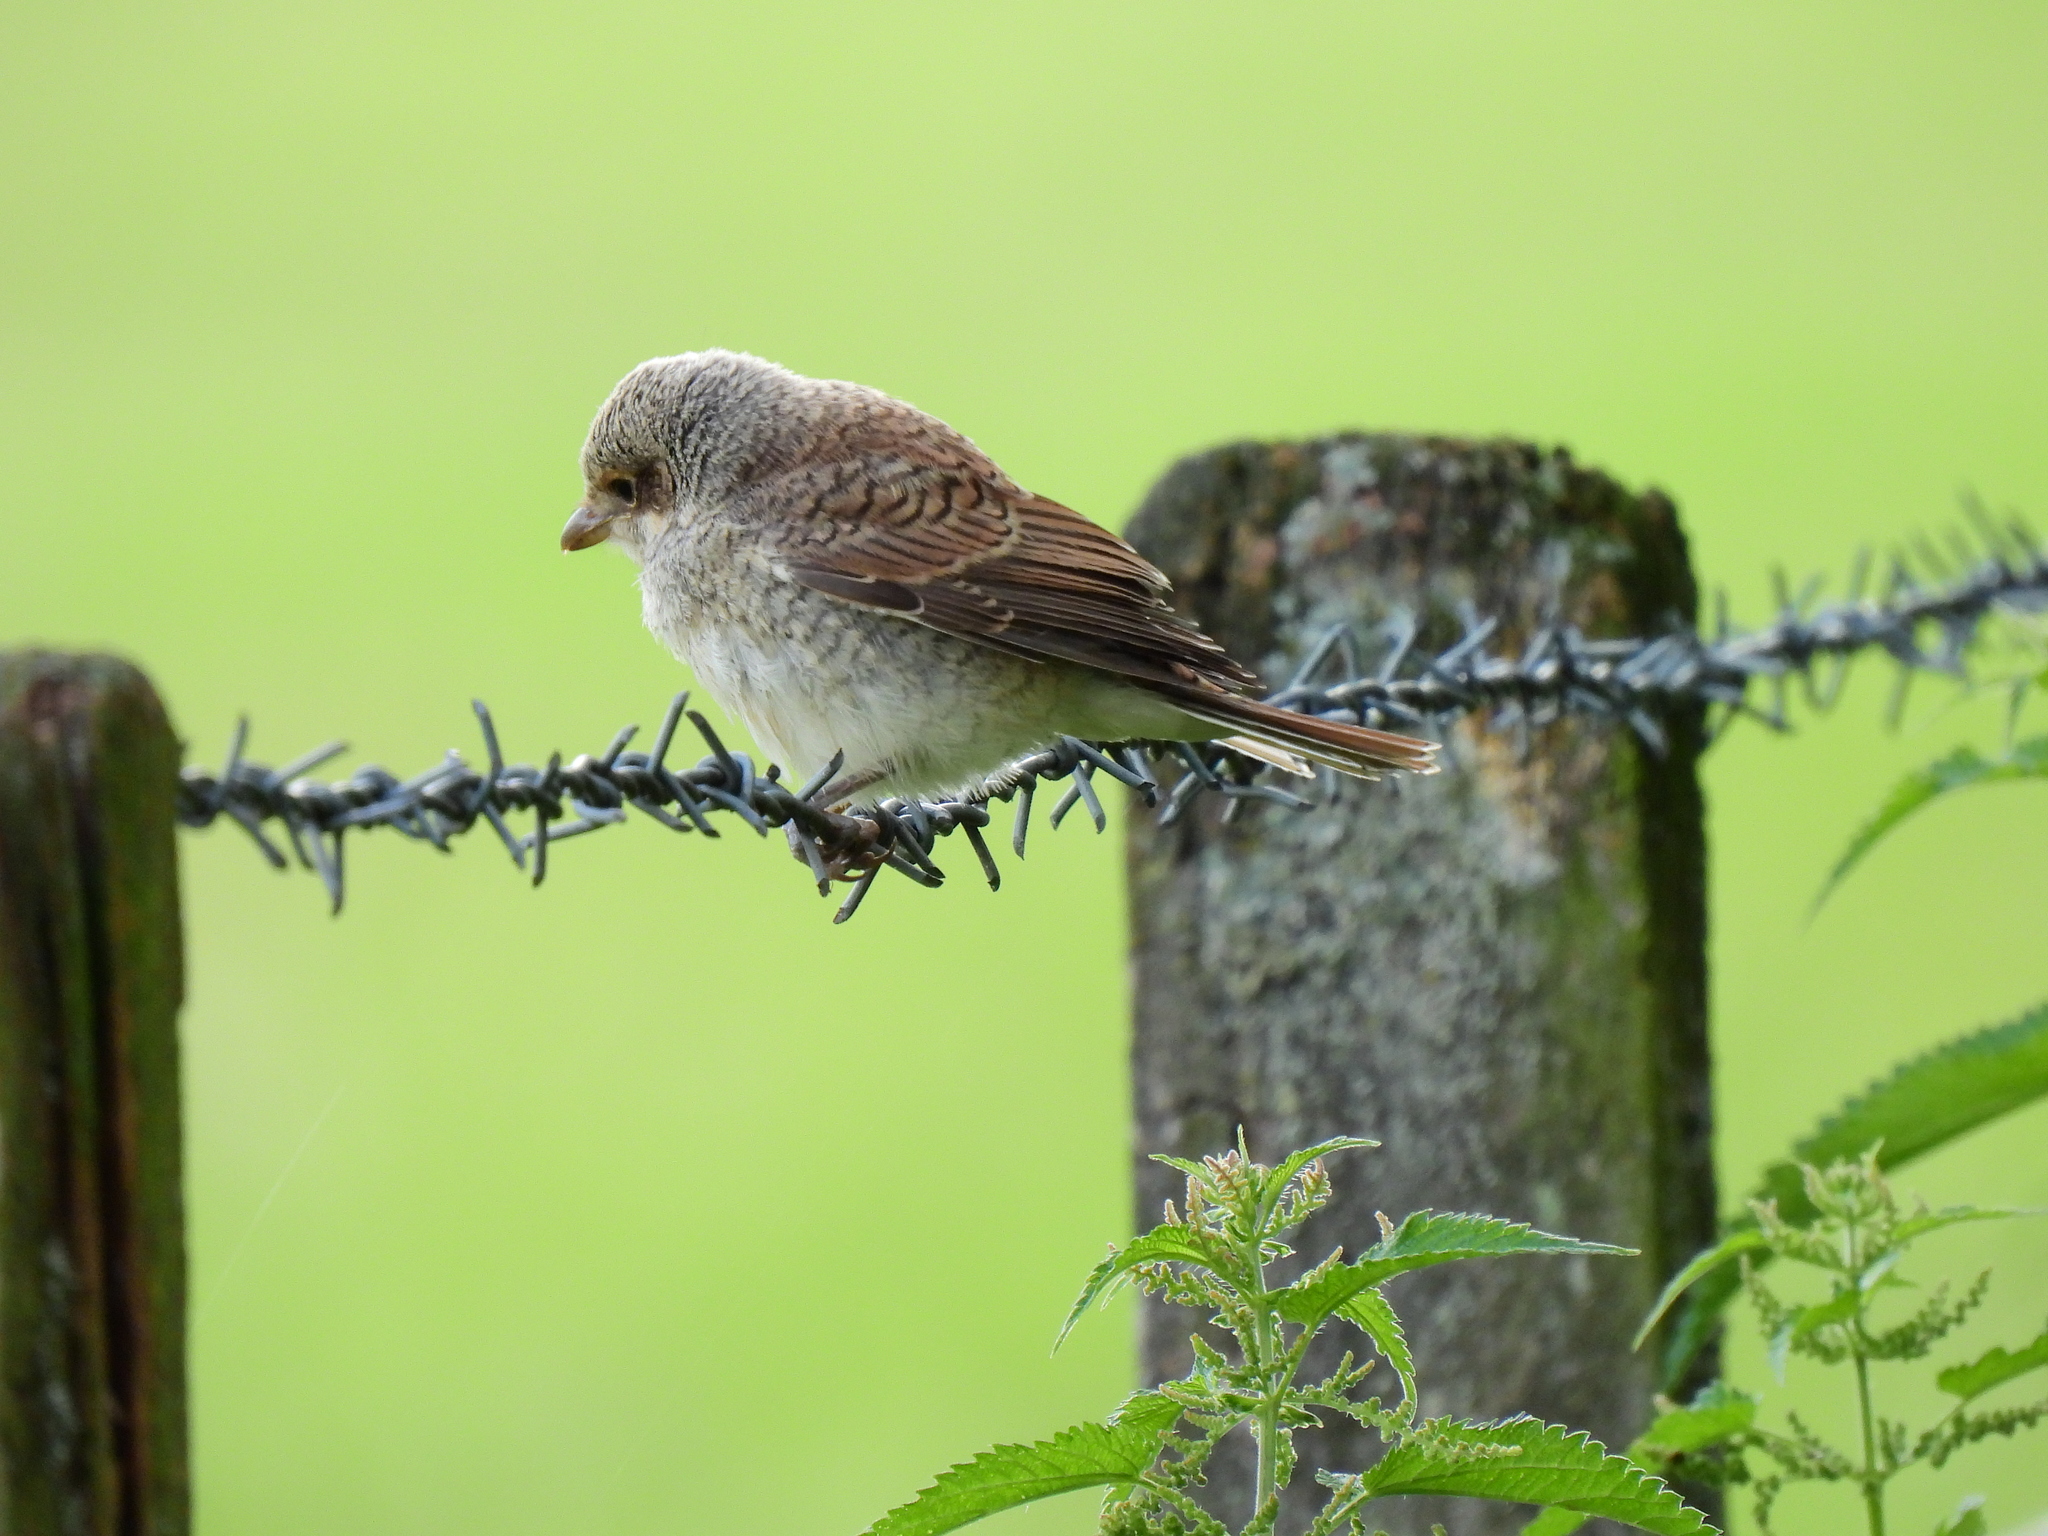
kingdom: Animalia
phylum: Chordata
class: Aves
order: Passeriformes
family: Laniidae
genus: Lanius
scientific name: Lanius collurio
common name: Red-backed shrike
